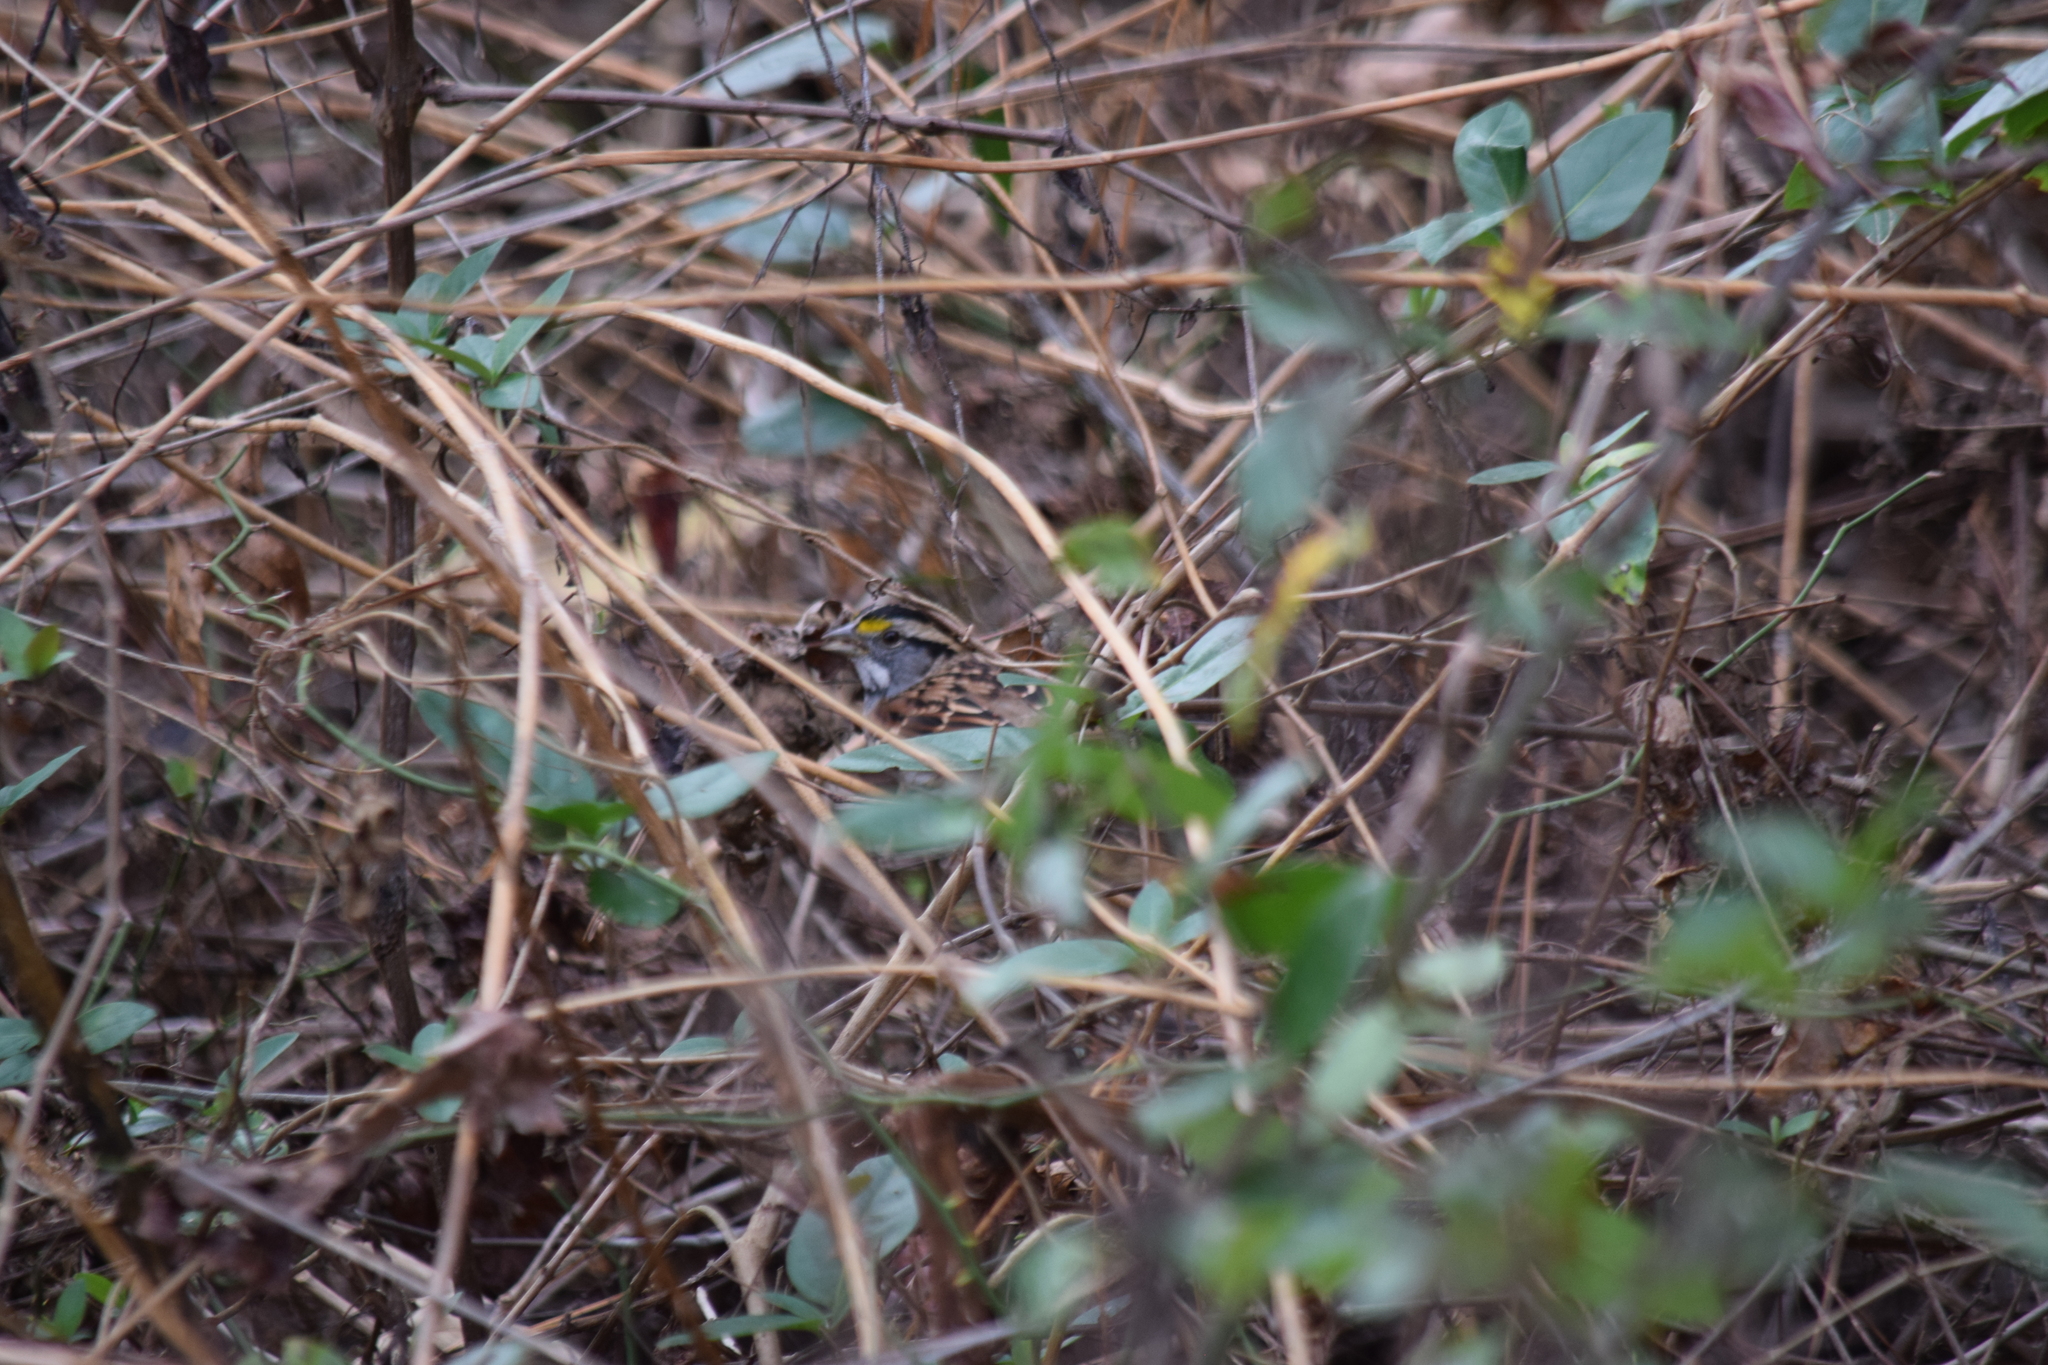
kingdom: Animalia
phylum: Chordata
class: Aves
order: Passeriformes
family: Passerellidae
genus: Zonotrichia
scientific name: Zonotrichia albicollis
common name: White-throated sparrow
